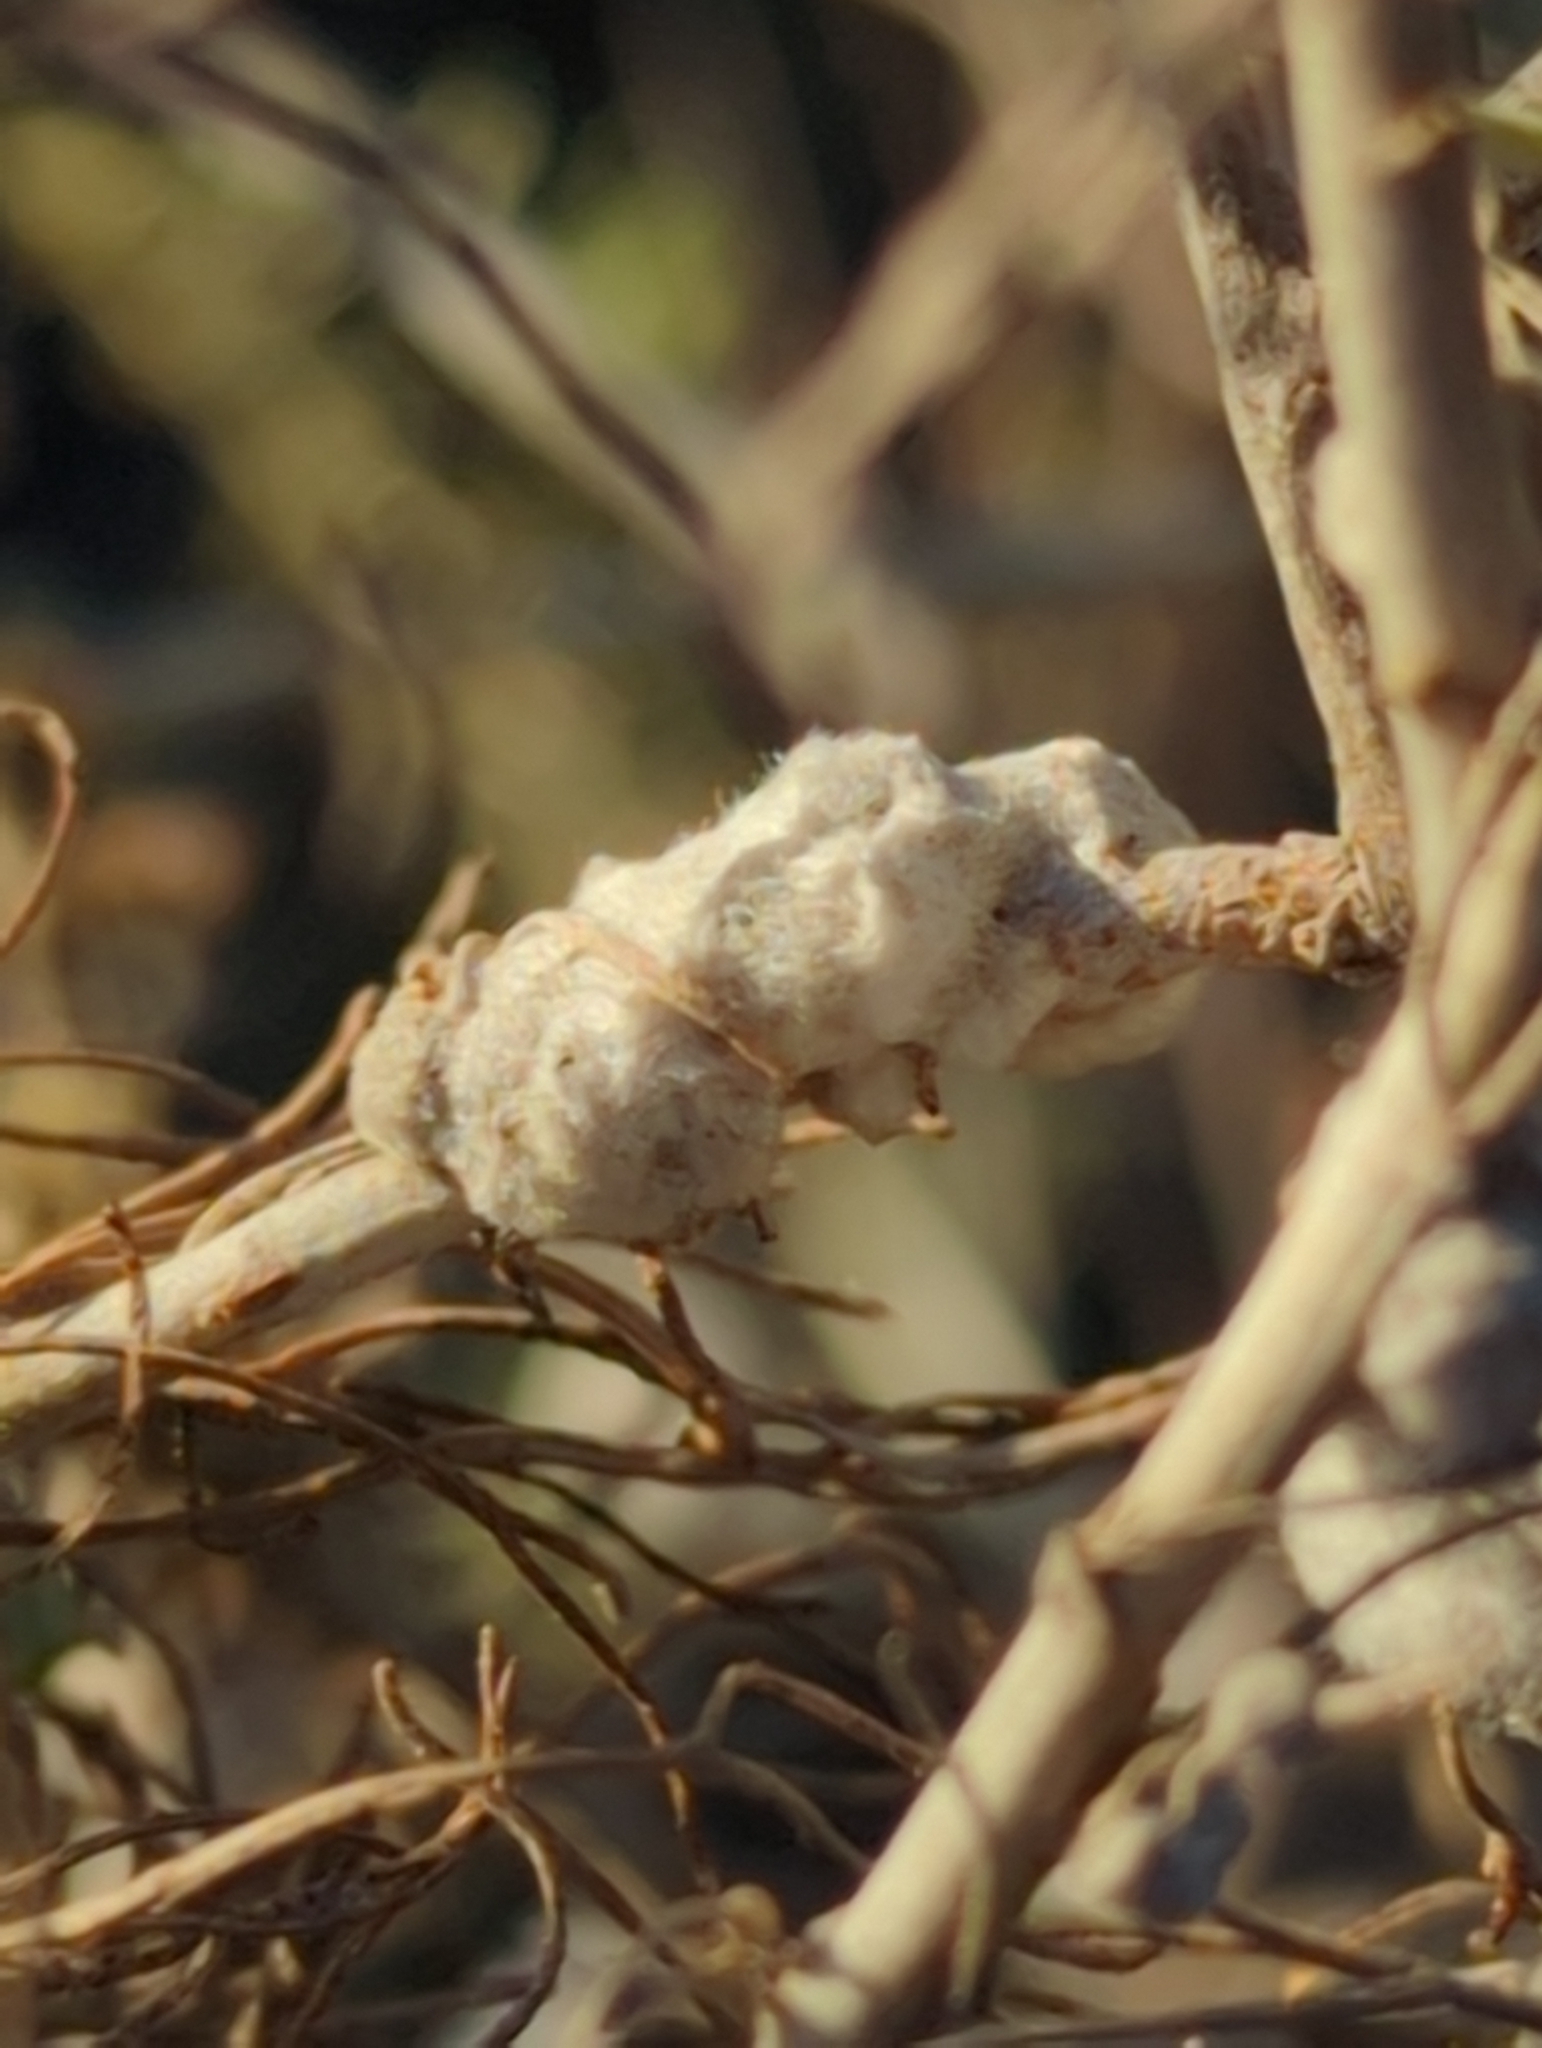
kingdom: Animalia
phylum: Arthropoda
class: Insecta
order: Diptera
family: Cecidomyiidae
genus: Rhopalomyia
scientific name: Rhopalomyia floccosa
